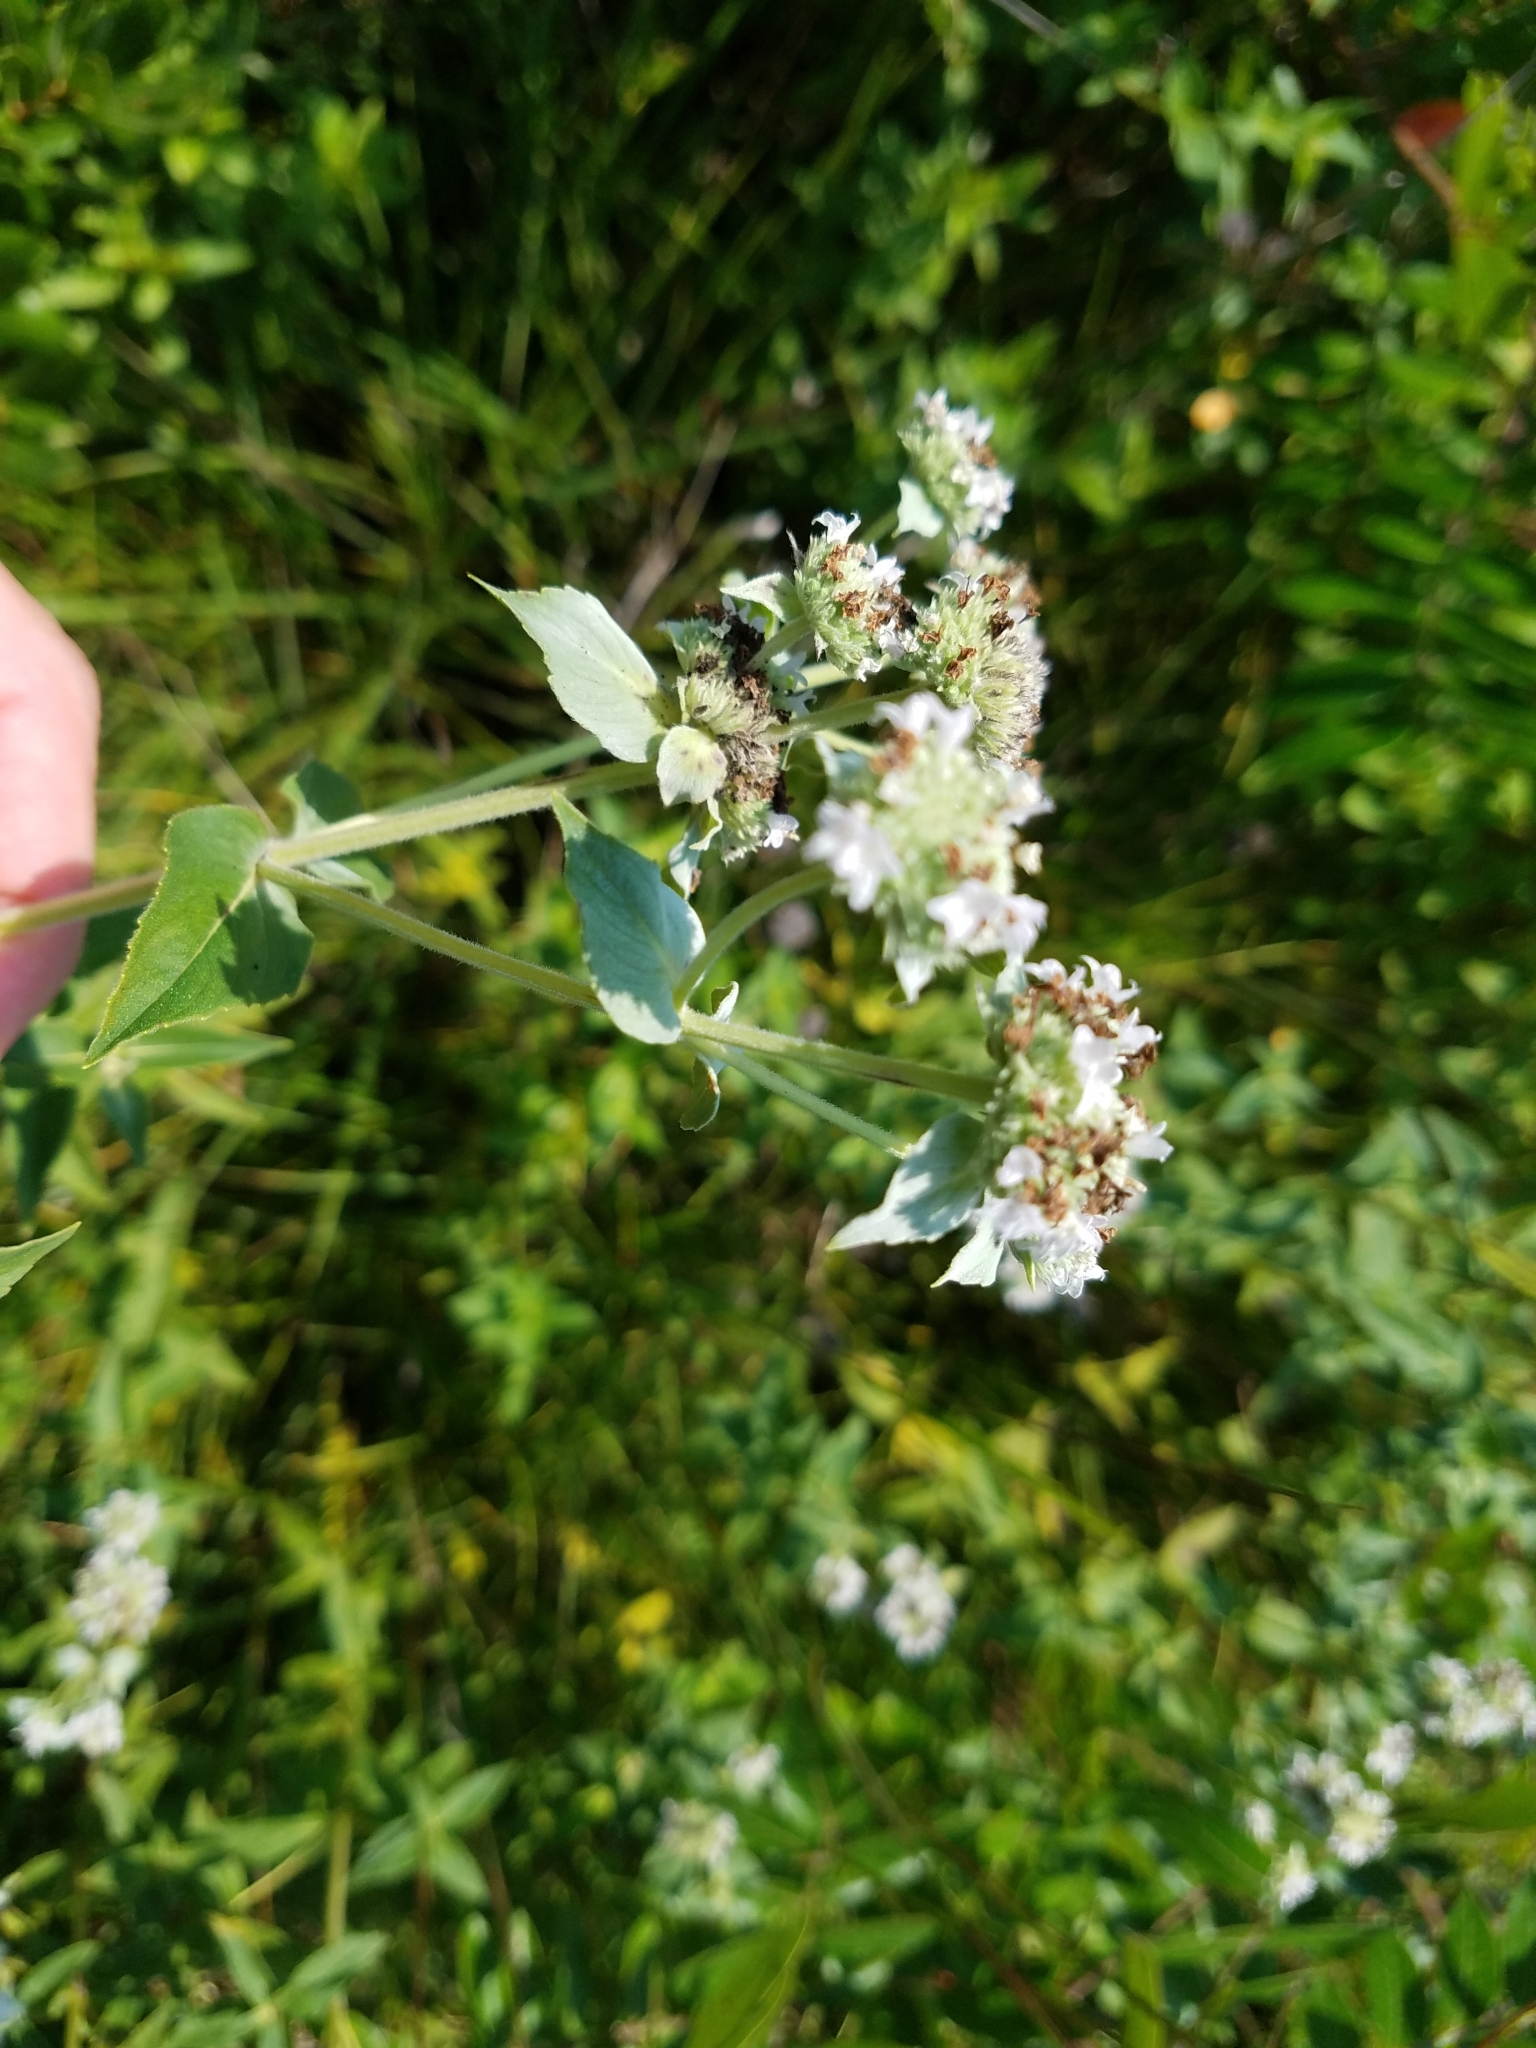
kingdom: Plantae
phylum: Tracheophyta
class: Magnoliopsida
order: Lamiales
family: Lamiaceae
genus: Pycnanthemum
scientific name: Pycnanthemum muticum
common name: Blunt mountain-mint
